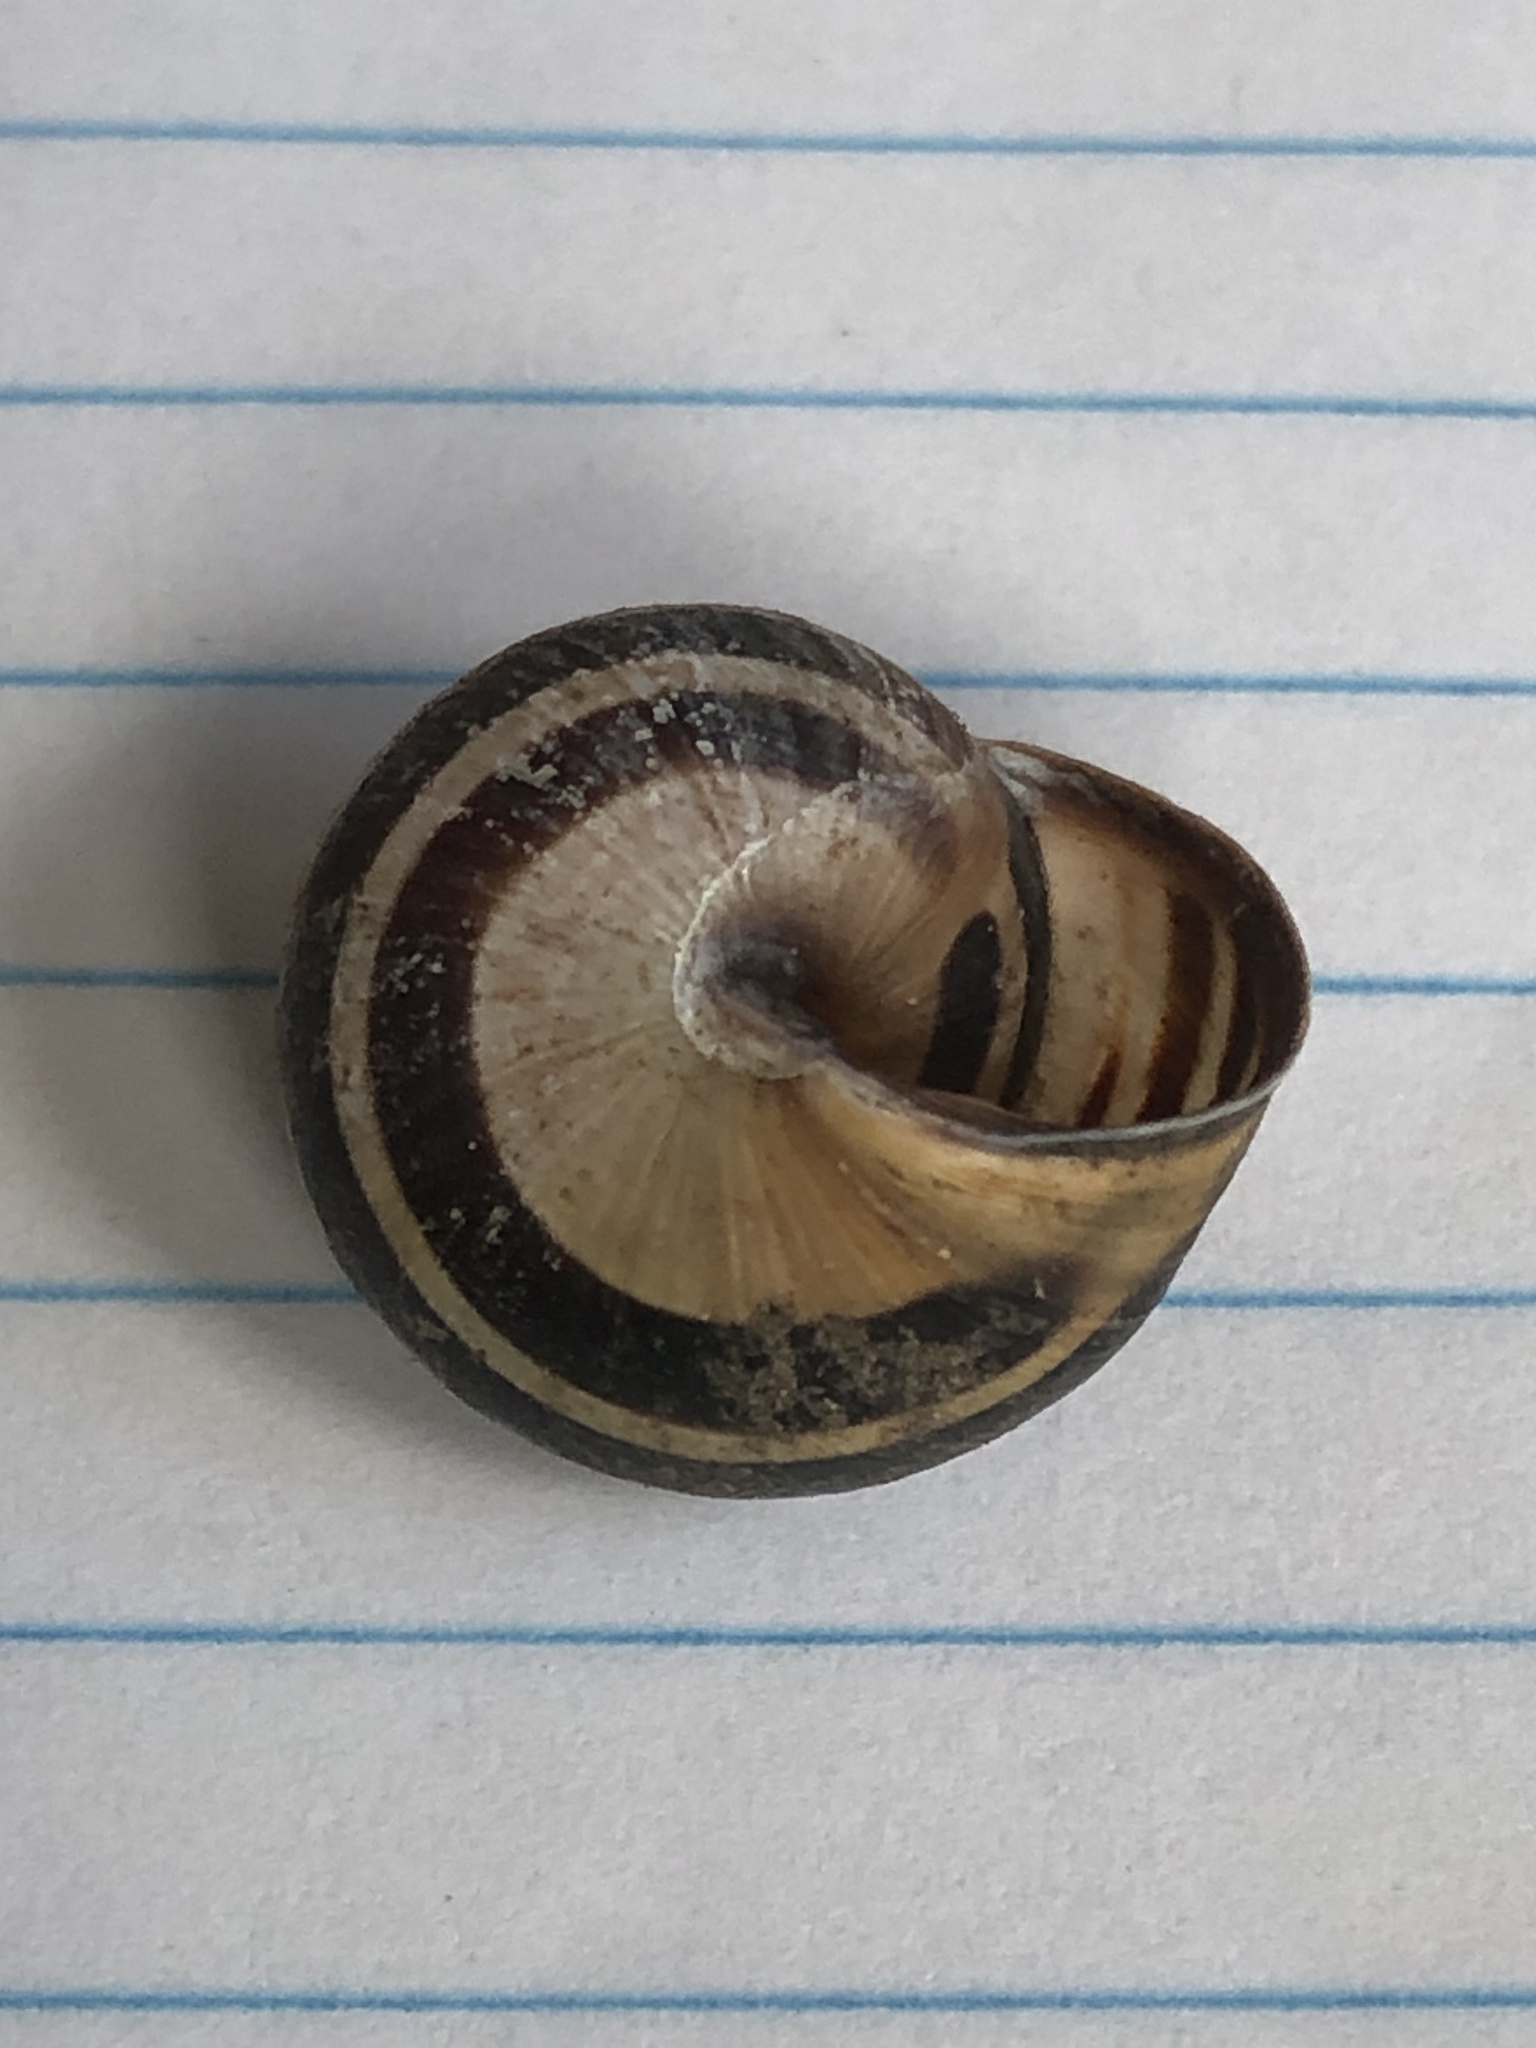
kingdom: Animalia
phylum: Mollusca
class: Gastropoda
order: Stylommatophora
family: Helicidae
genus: Cepaea
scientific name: Cepaea nemoralis
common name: Grovesnail
